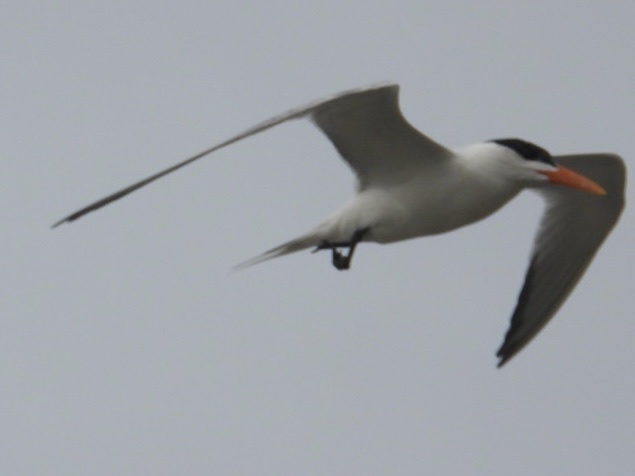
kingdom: Animalia
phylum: Chordata
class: Aves
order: Charadriiformes
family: Laridae
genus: Thalasseus
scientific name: Thalasseus maximus
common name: Royal tern
